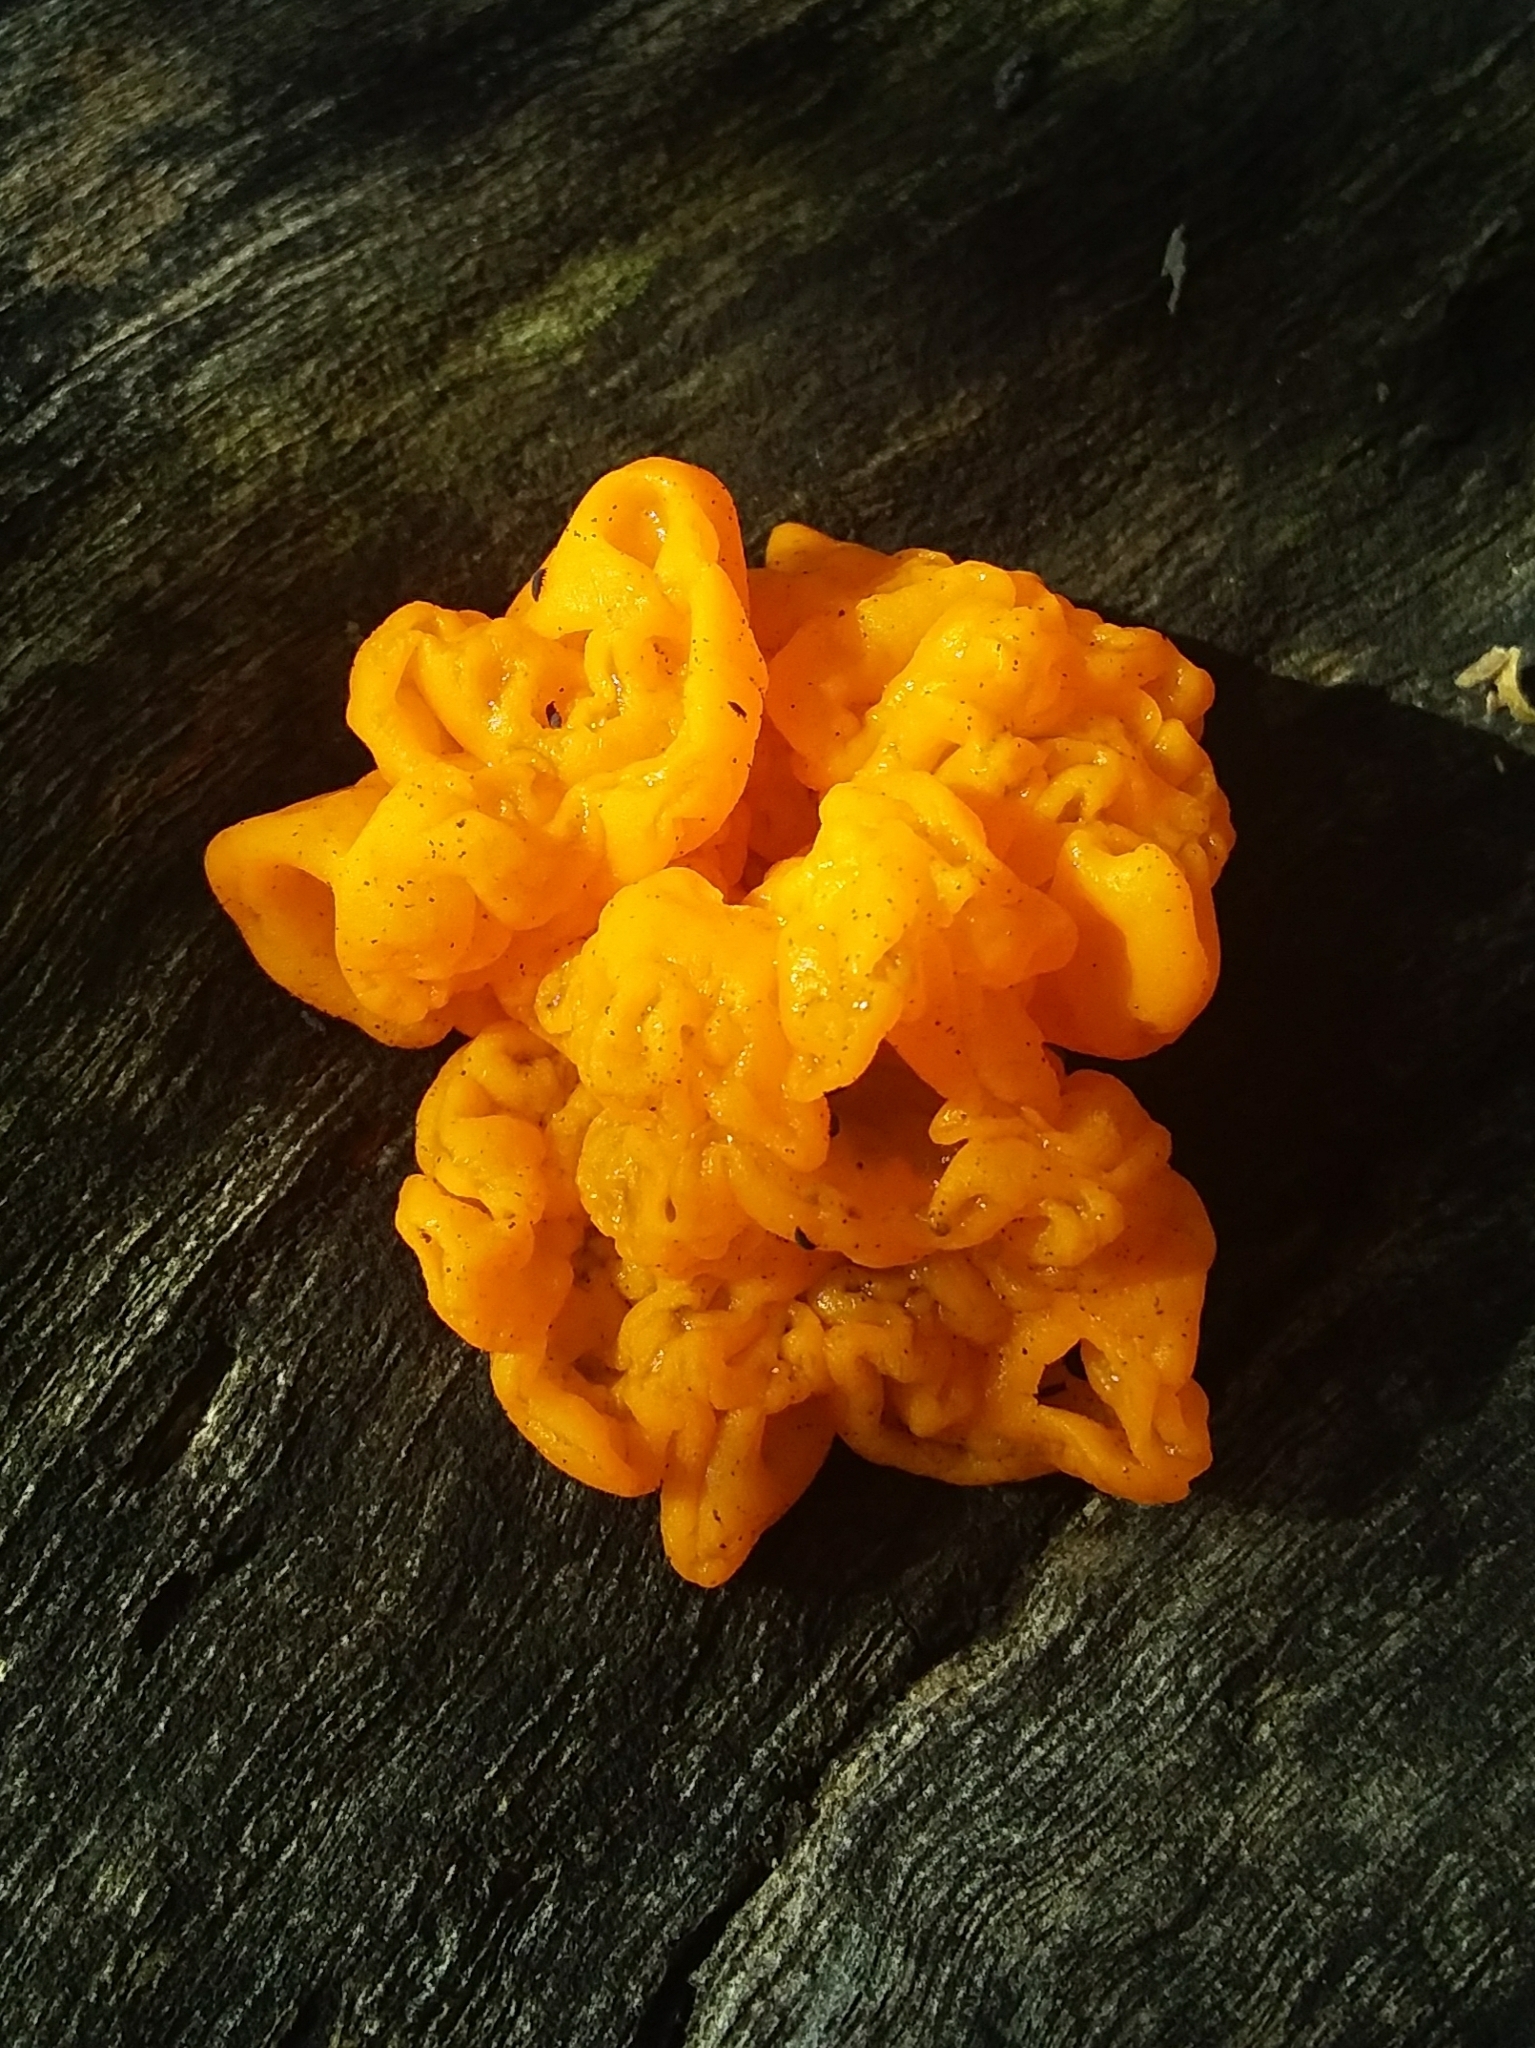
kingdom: Fungi
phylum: Basidiomycota
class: Tremellomycetes
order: Tremellales
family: Tremellaceae
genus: Tremella
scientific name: Tremella mesenterica
